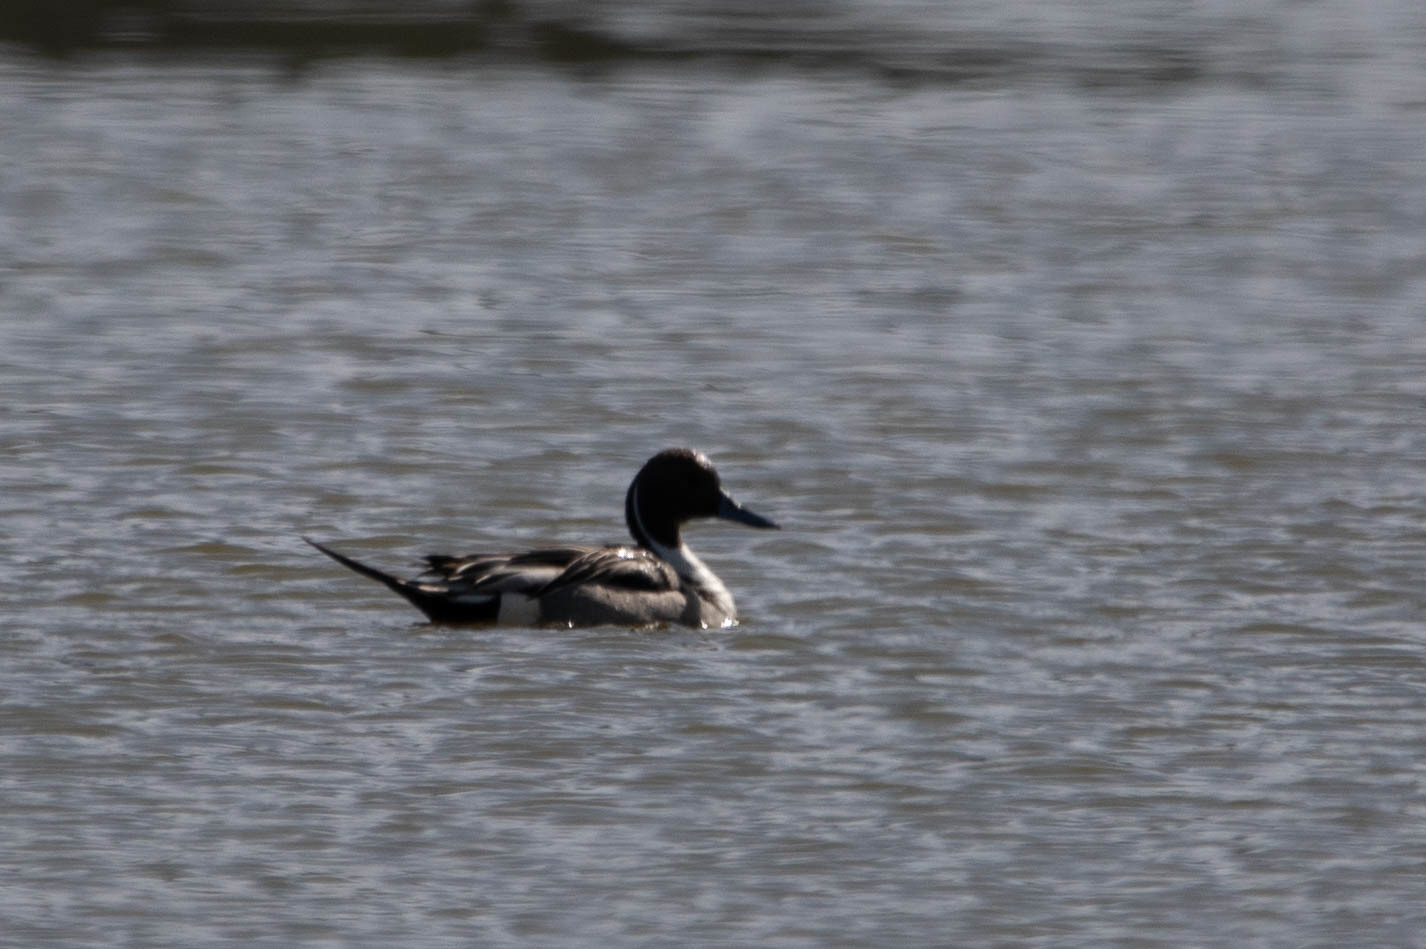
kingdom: Animalia
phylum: Chordata
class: Aves
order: Anseriformes
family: Anatidae
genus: Anas
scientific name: Anas acuta
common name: Northern pintail
